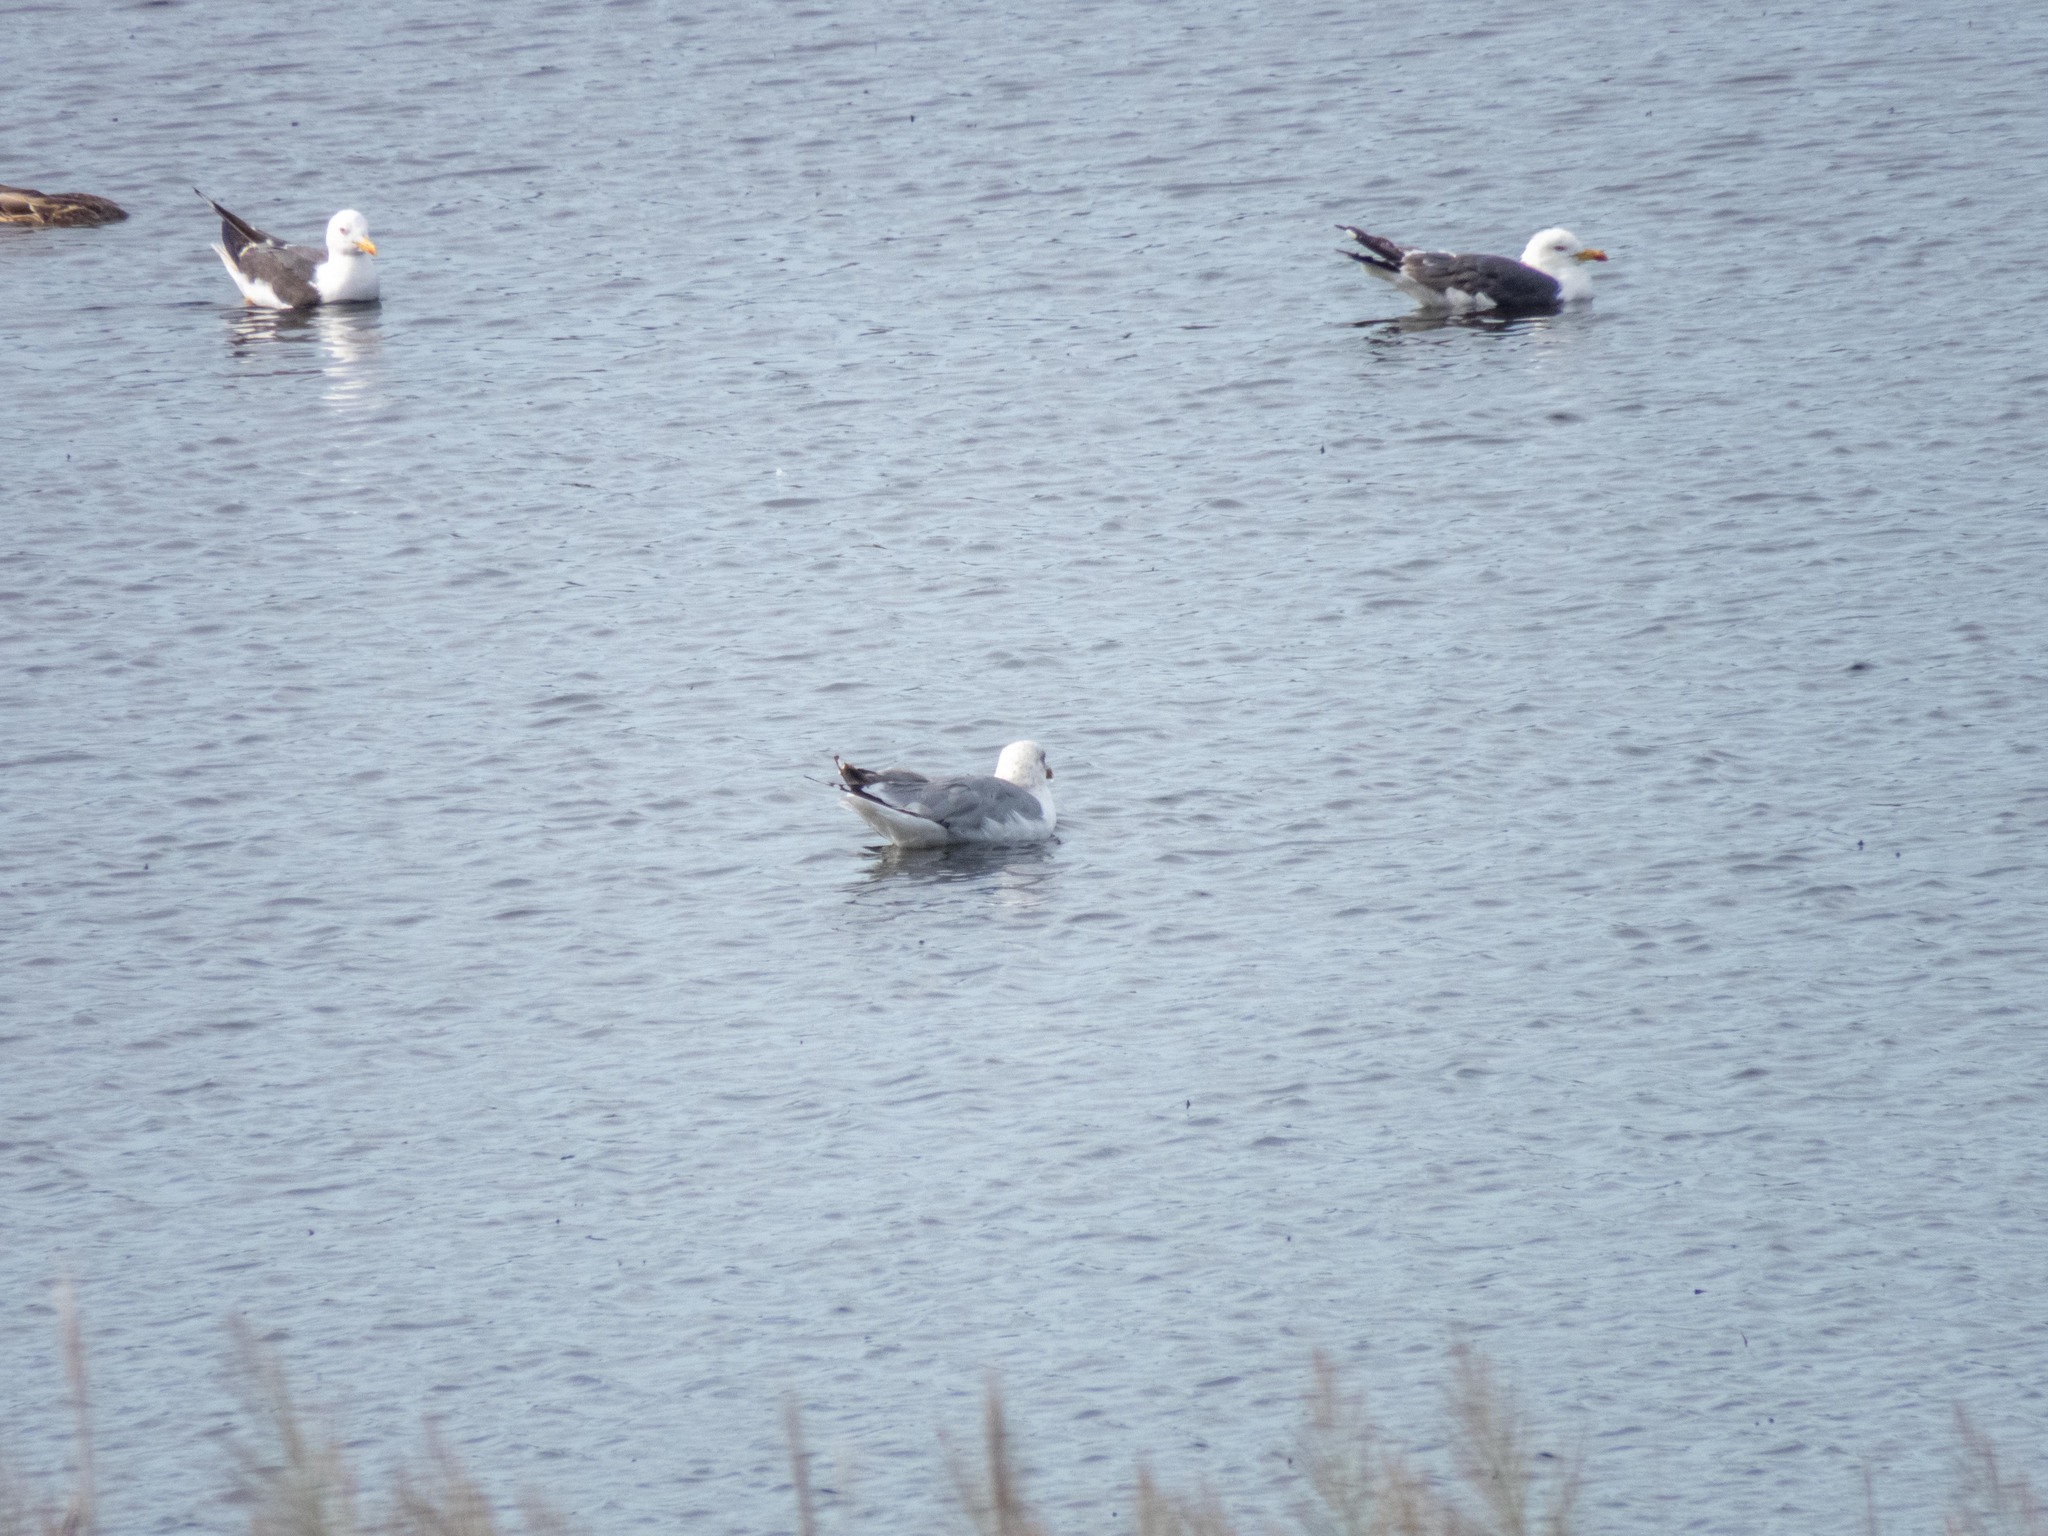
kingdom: Animalia
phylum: Chordata
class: Aves
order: Charadriiformes
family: Laridae
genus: Larus
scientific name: Larus michahellis
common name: Yellow-legged gull
